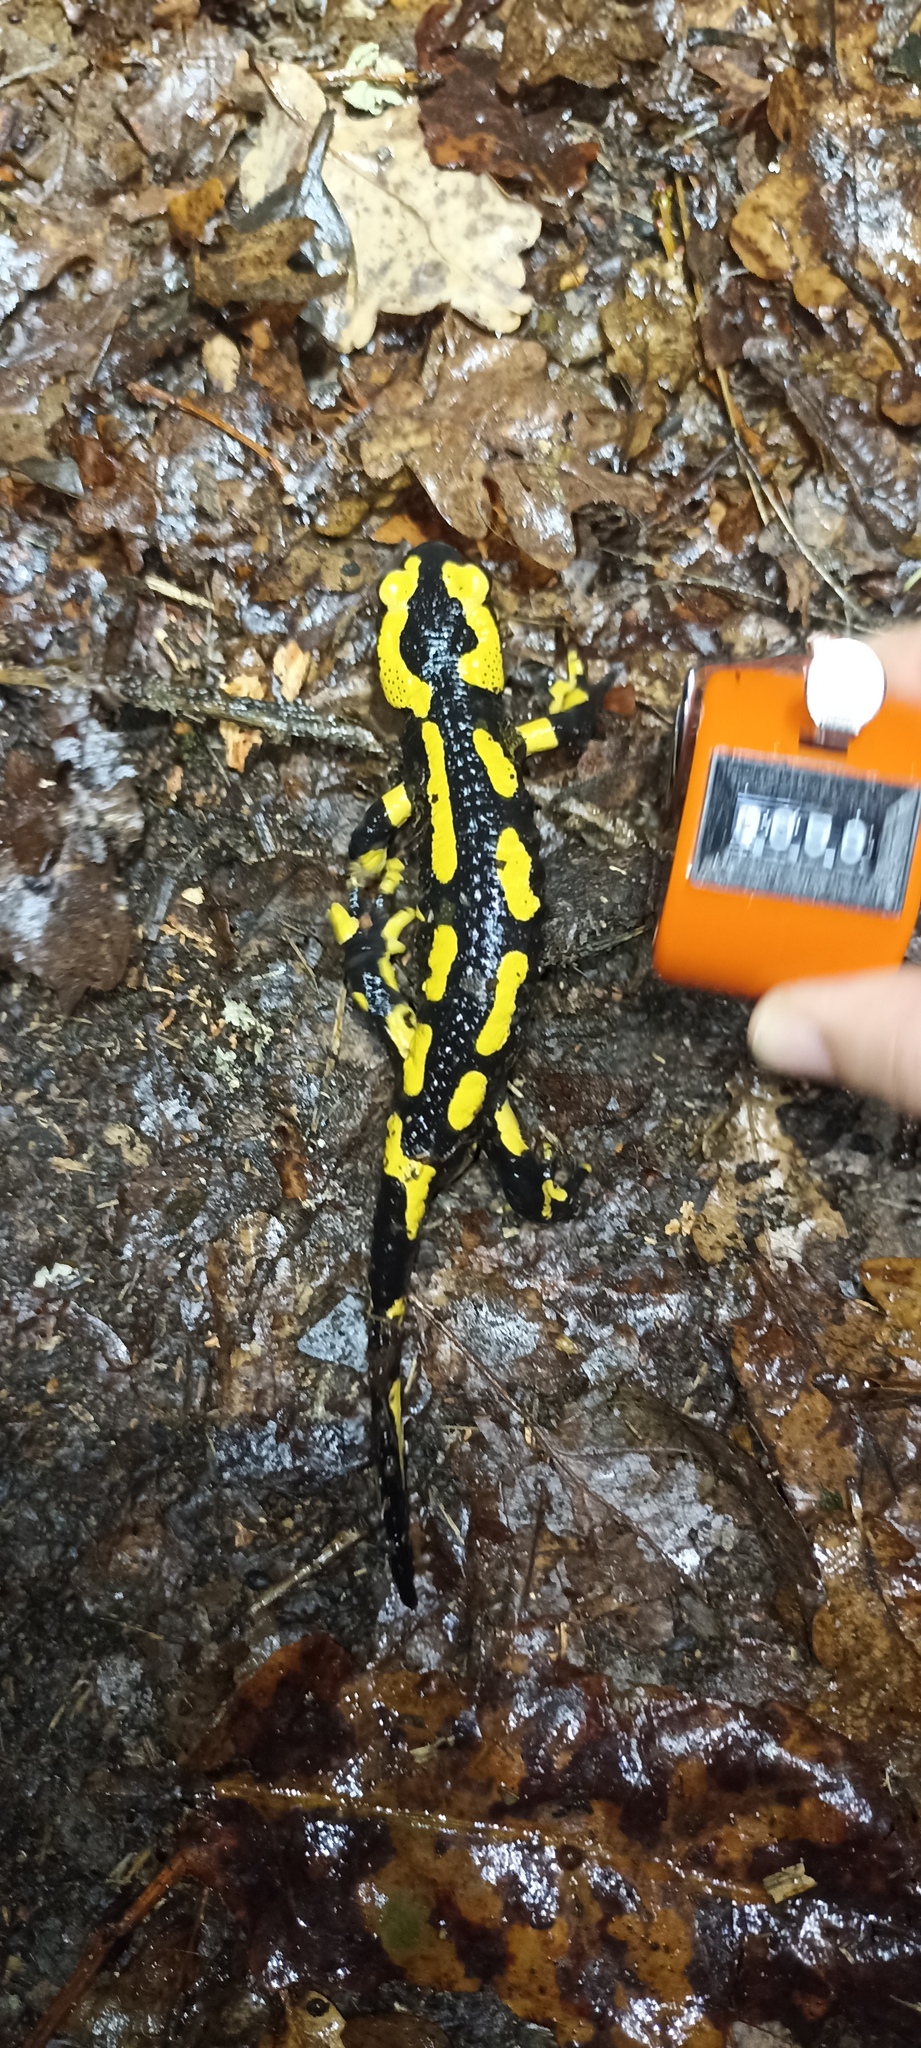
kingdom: Animalia
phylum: Chordata
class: Amphibia
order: Caudata
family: Salamandridae
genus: Salamandra
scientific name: Salamandra salamandra
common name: Fire salamander
